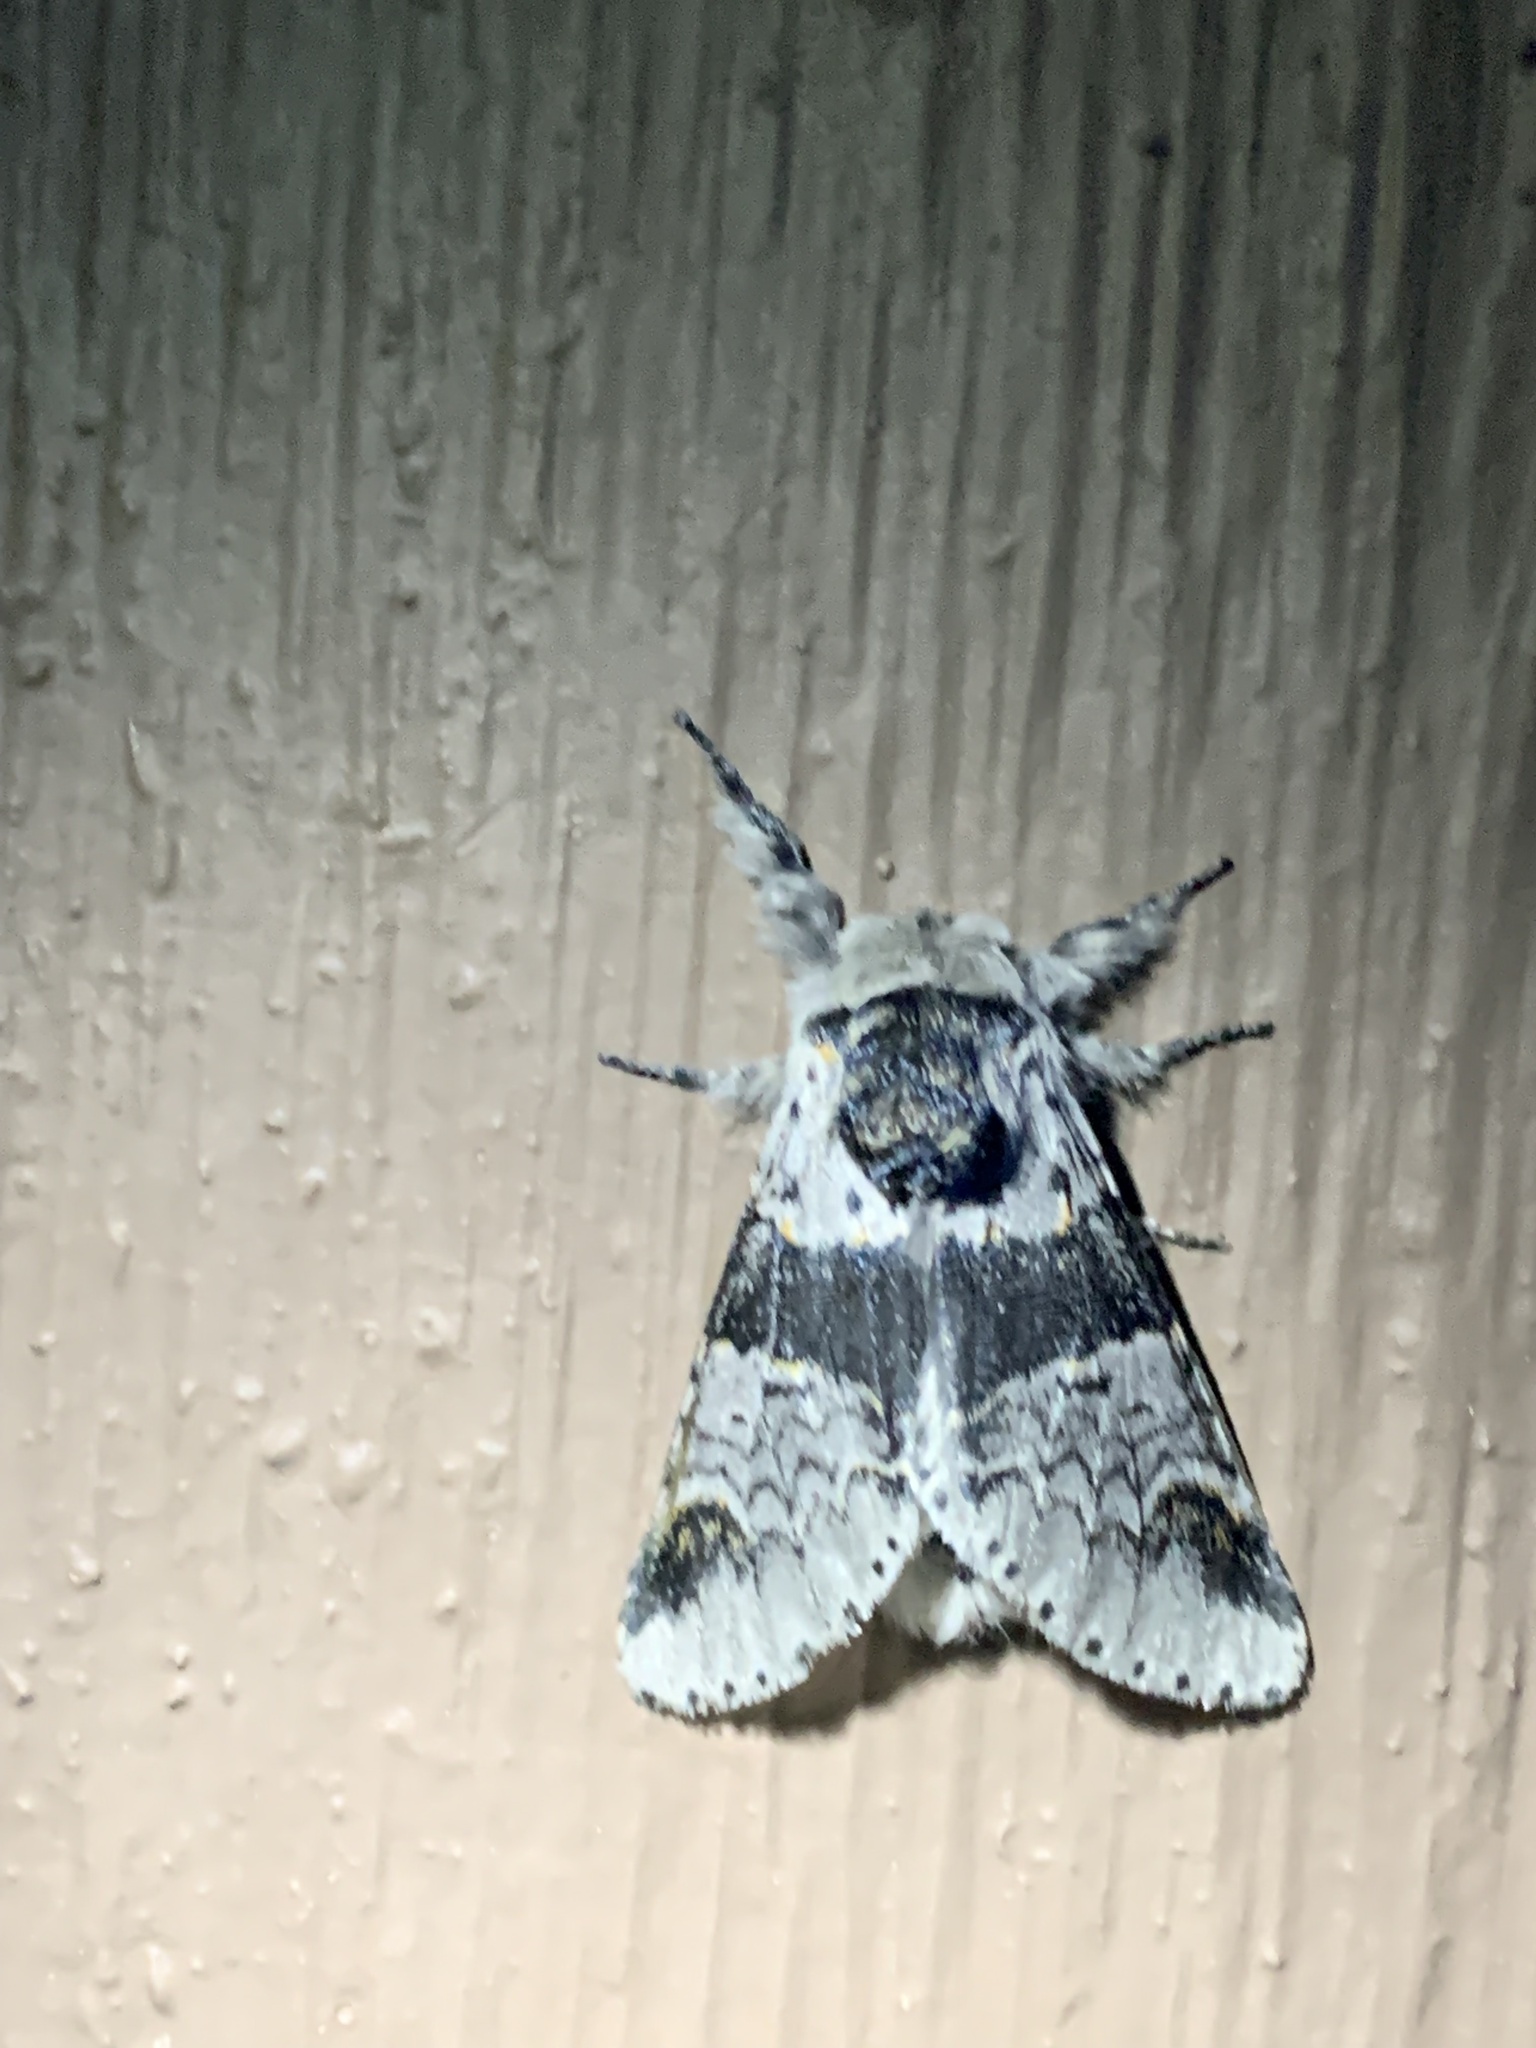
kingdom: Animalia
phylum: Arthropoda
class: Insecta
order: Lepidoptera
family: Notodontidae
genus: Furcula
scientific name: Furcula occidentalis
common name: Western furcula moth
